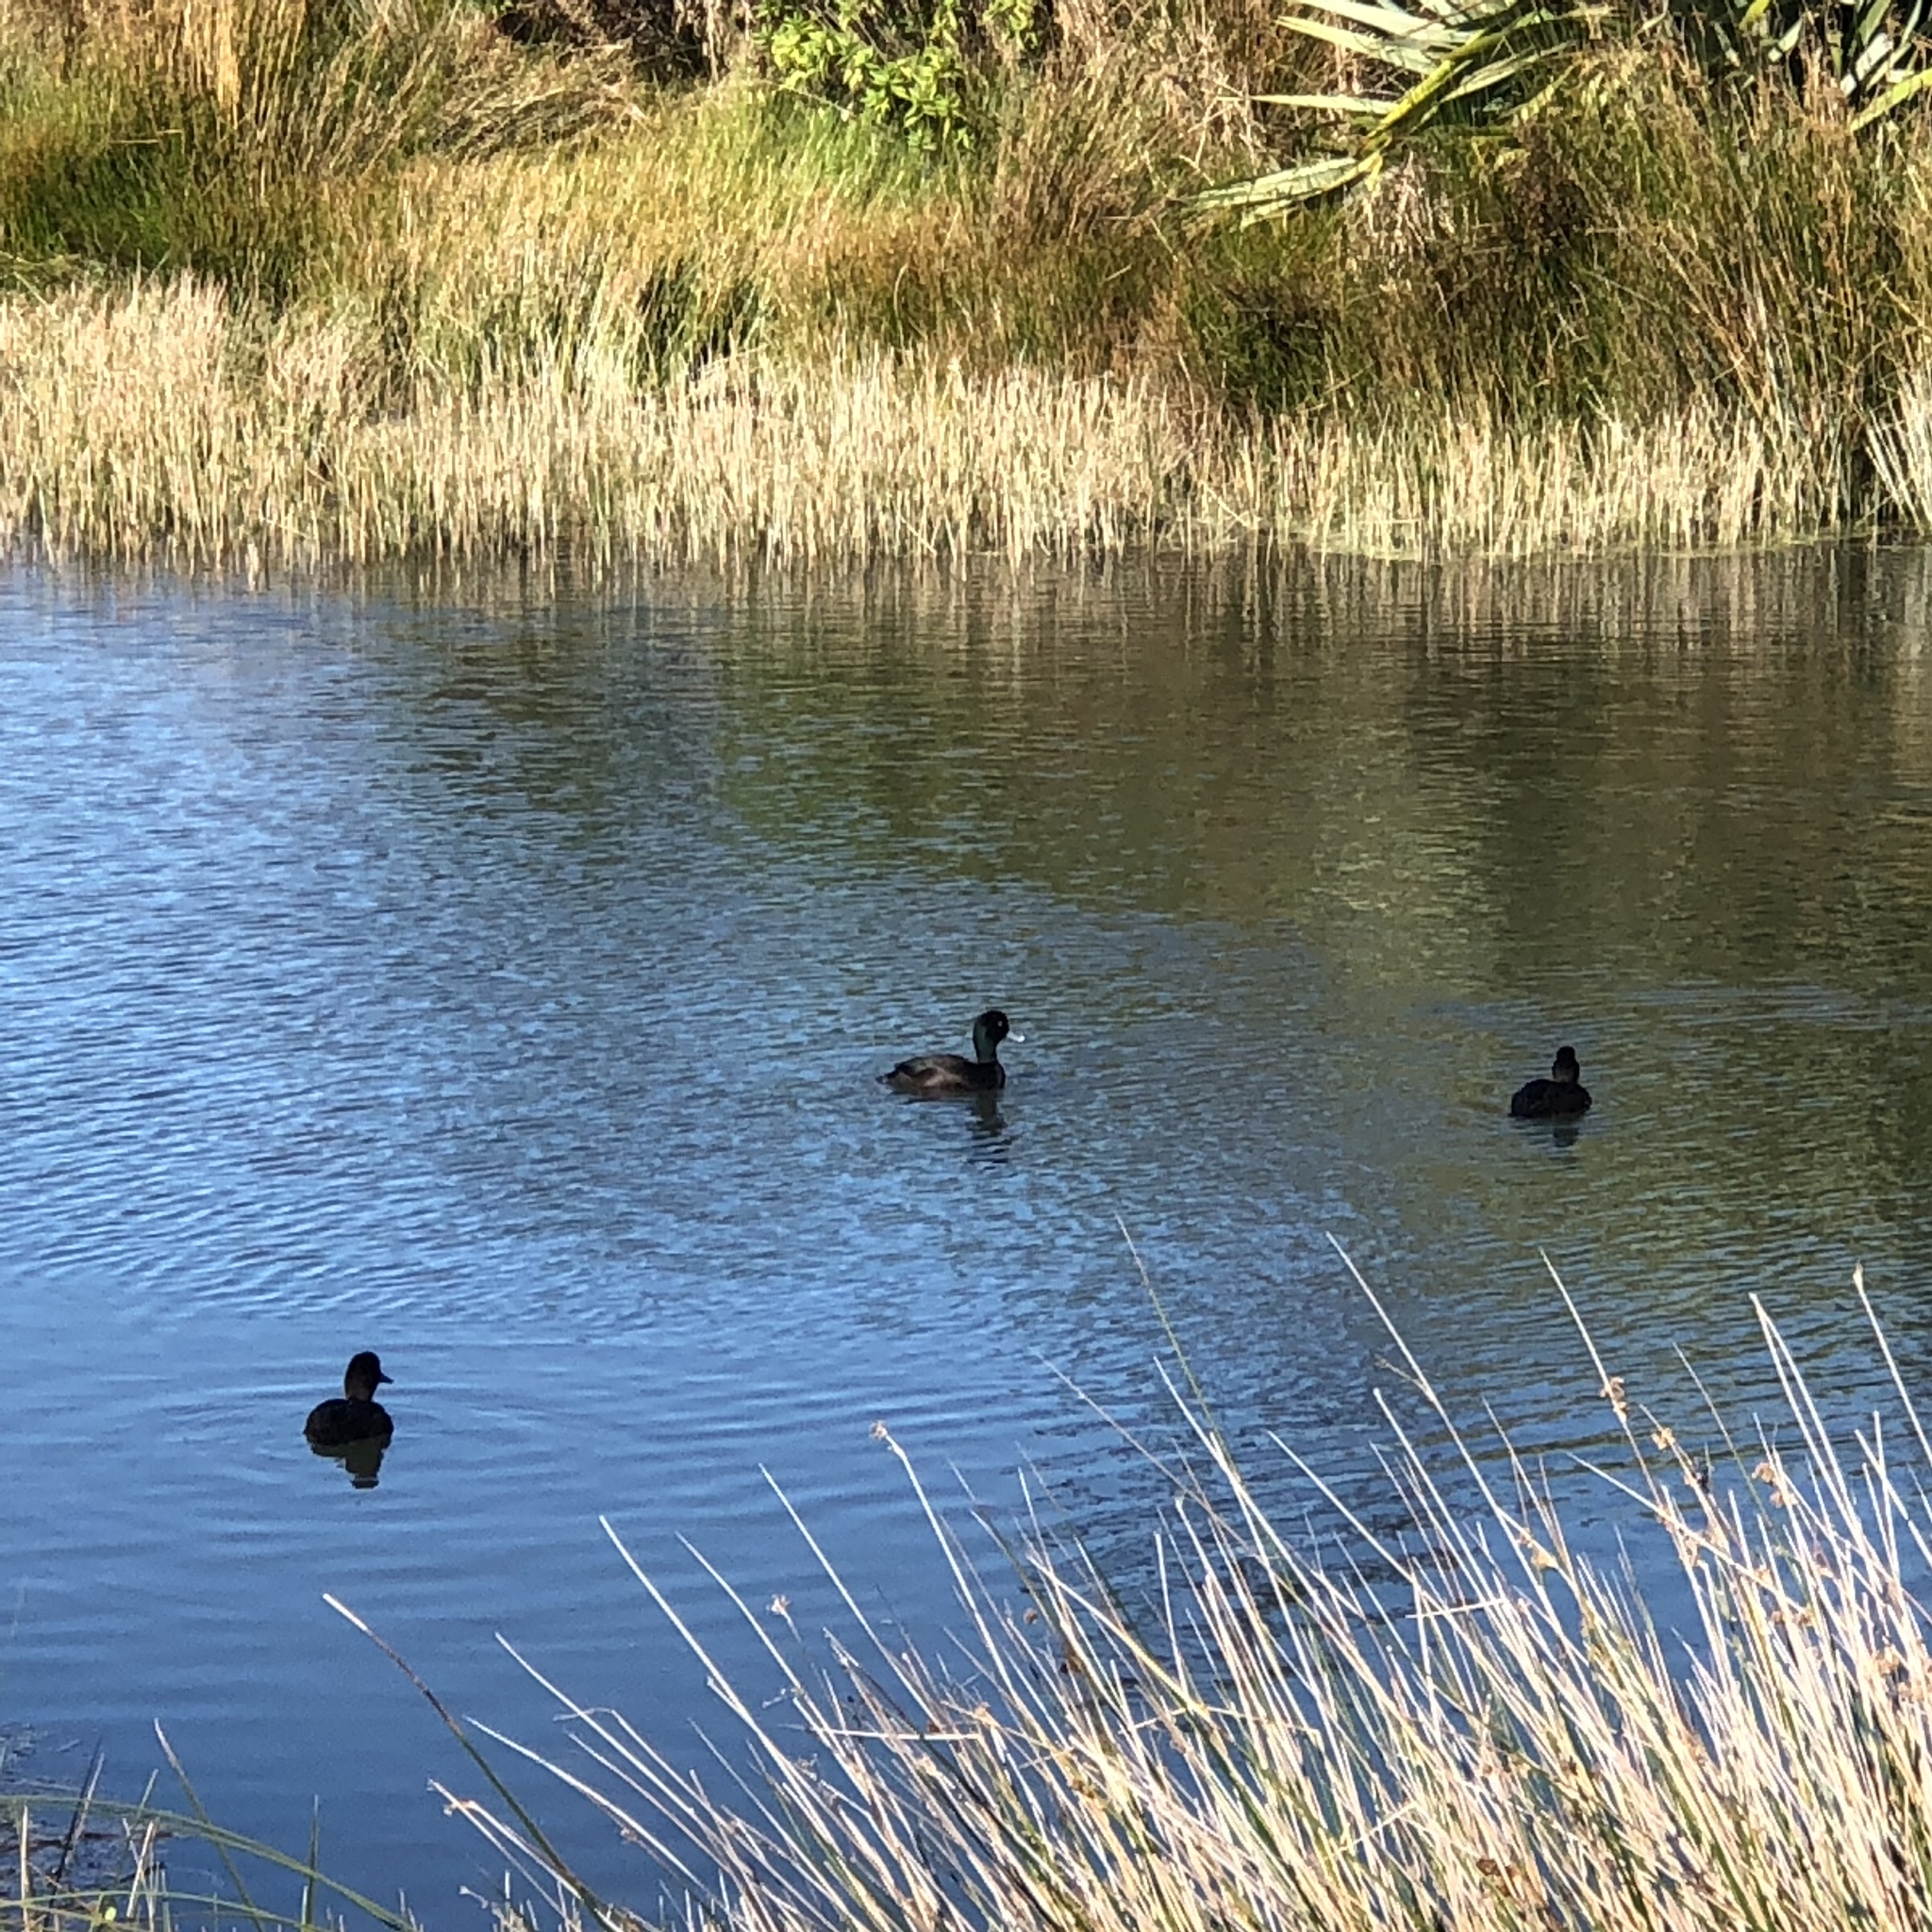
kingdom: Animalia
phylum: Chordata
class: Aves
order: Anseriformes
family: Anatidae
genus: Aythya
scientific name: Aythya novaeseelandiae
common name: New zealand scaup
